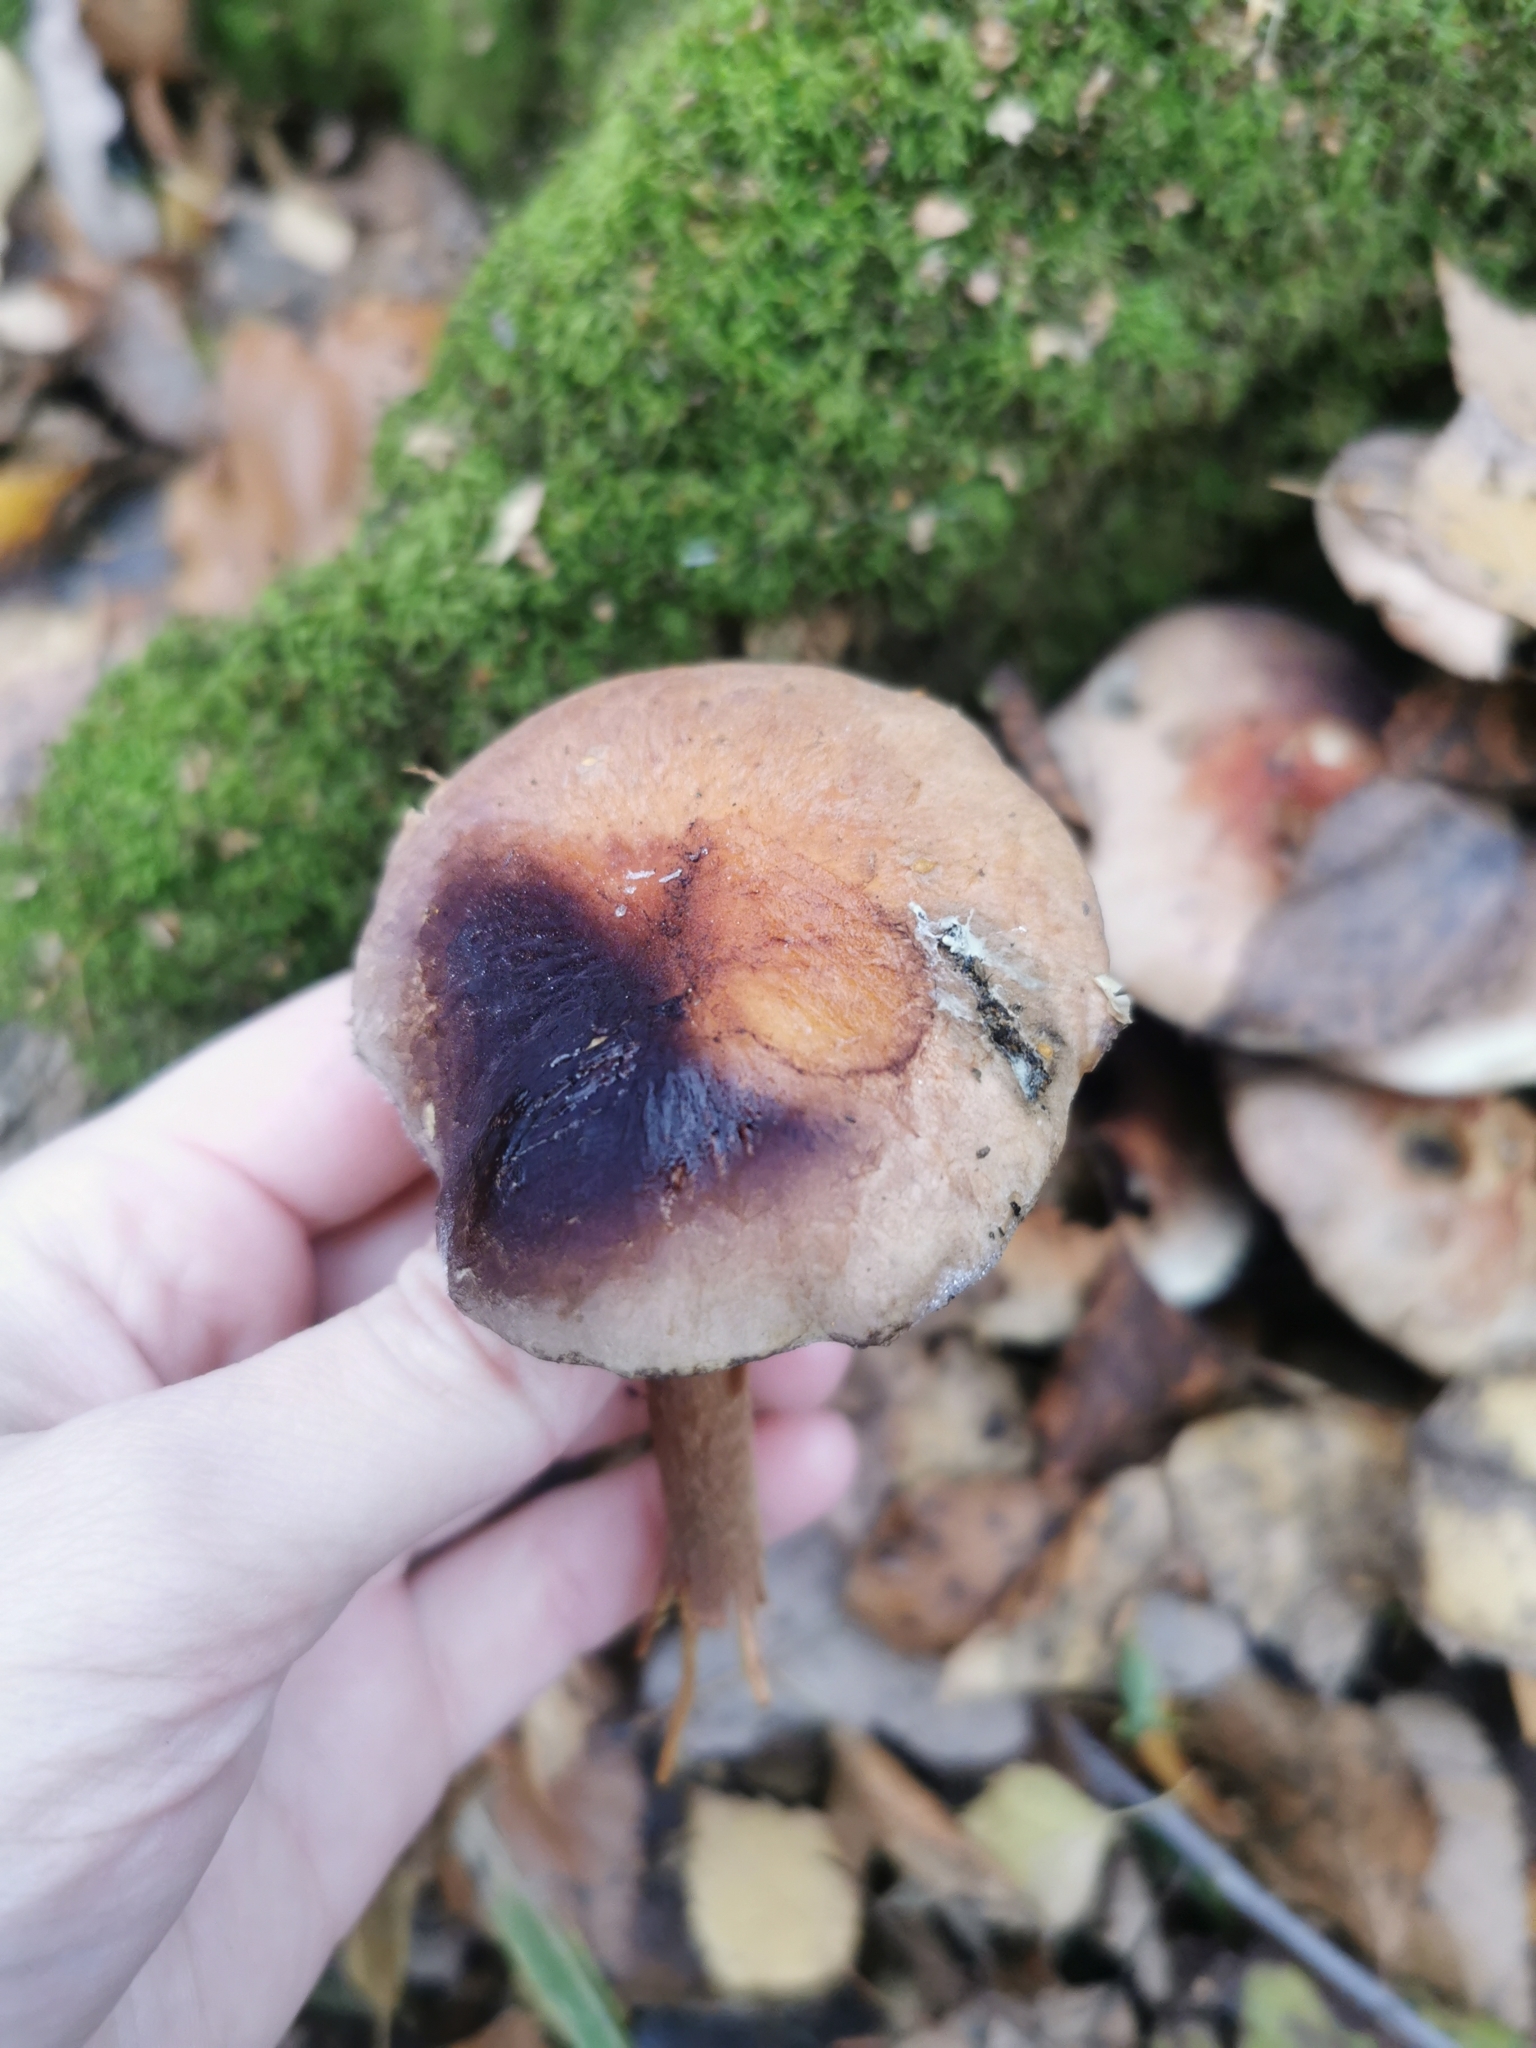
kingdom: Fungi
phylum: Basidiomycota
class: Agaricomycetes
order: Agaricales
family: Strophariaceae
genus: Hypholoma
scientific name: Hypholoma lateritium
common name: Brick caps
